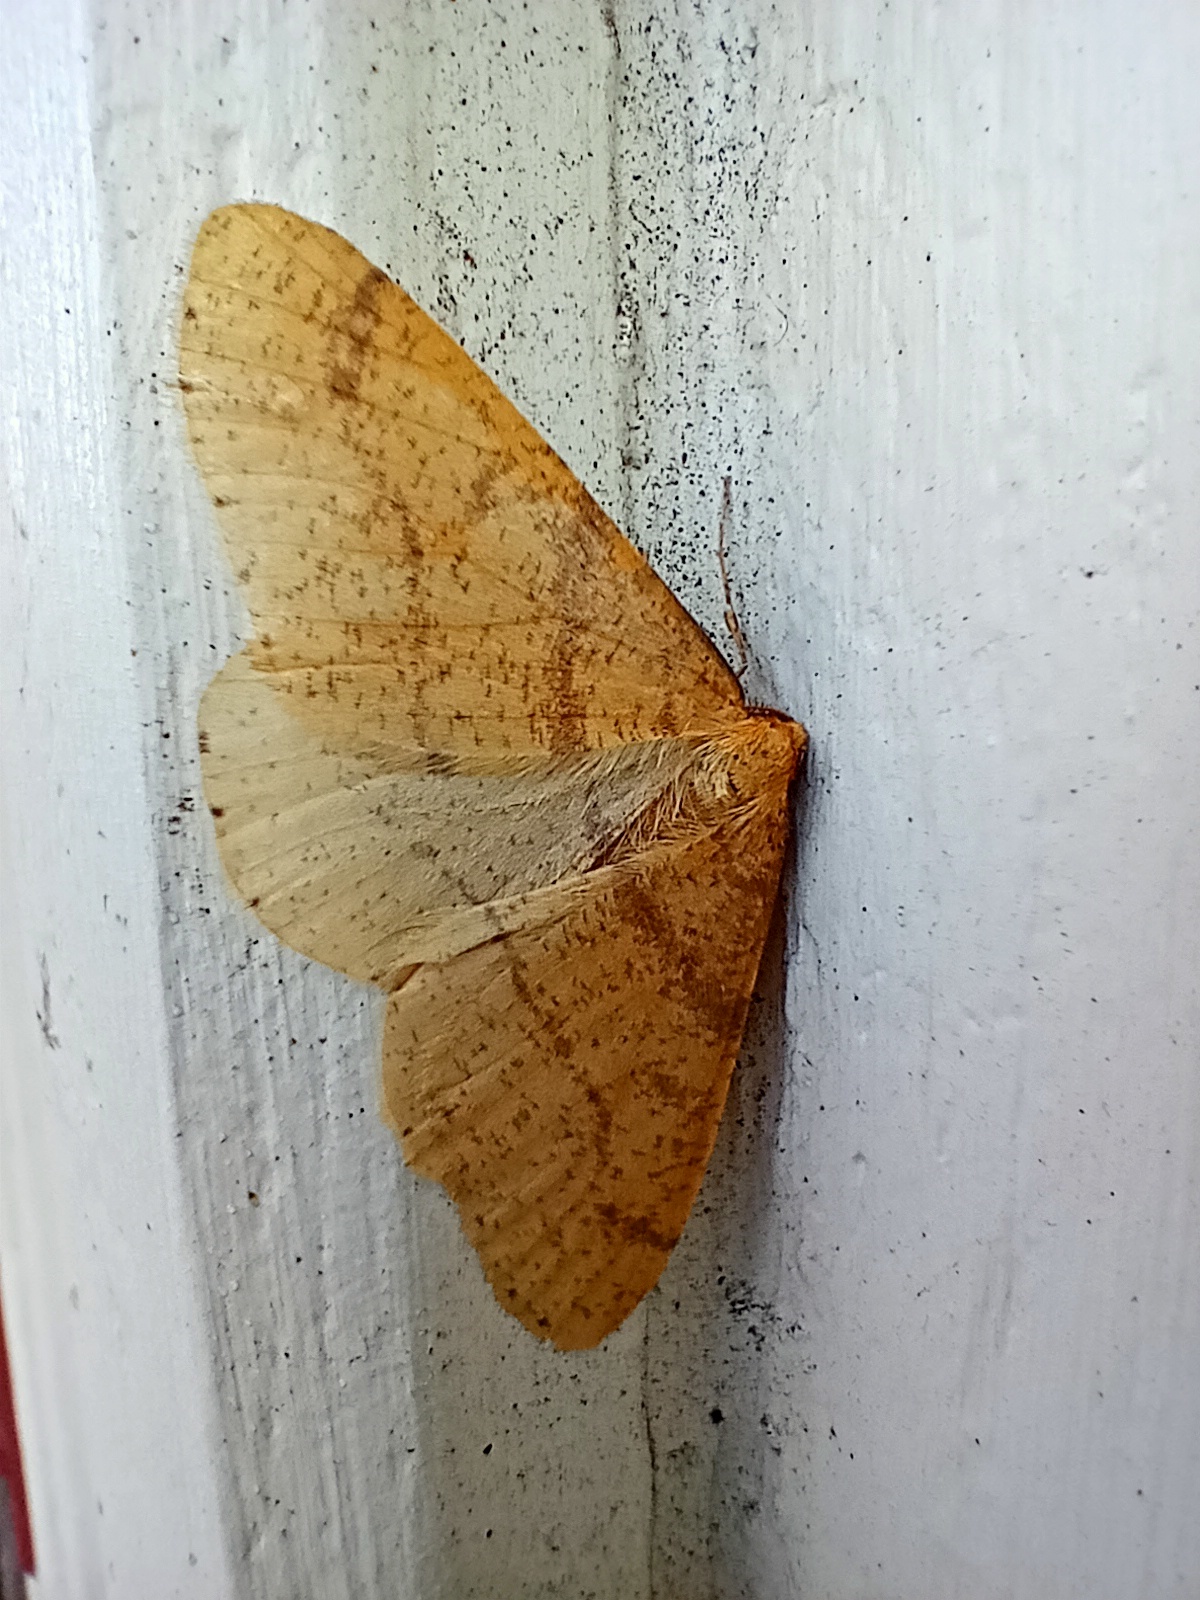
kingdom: Animalia
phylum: Arthropoda
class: Insecta
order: Lepidoptera
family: Geometridae
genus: Agriopis
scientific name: Agriopis aurantiaria
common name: Scarce umber
